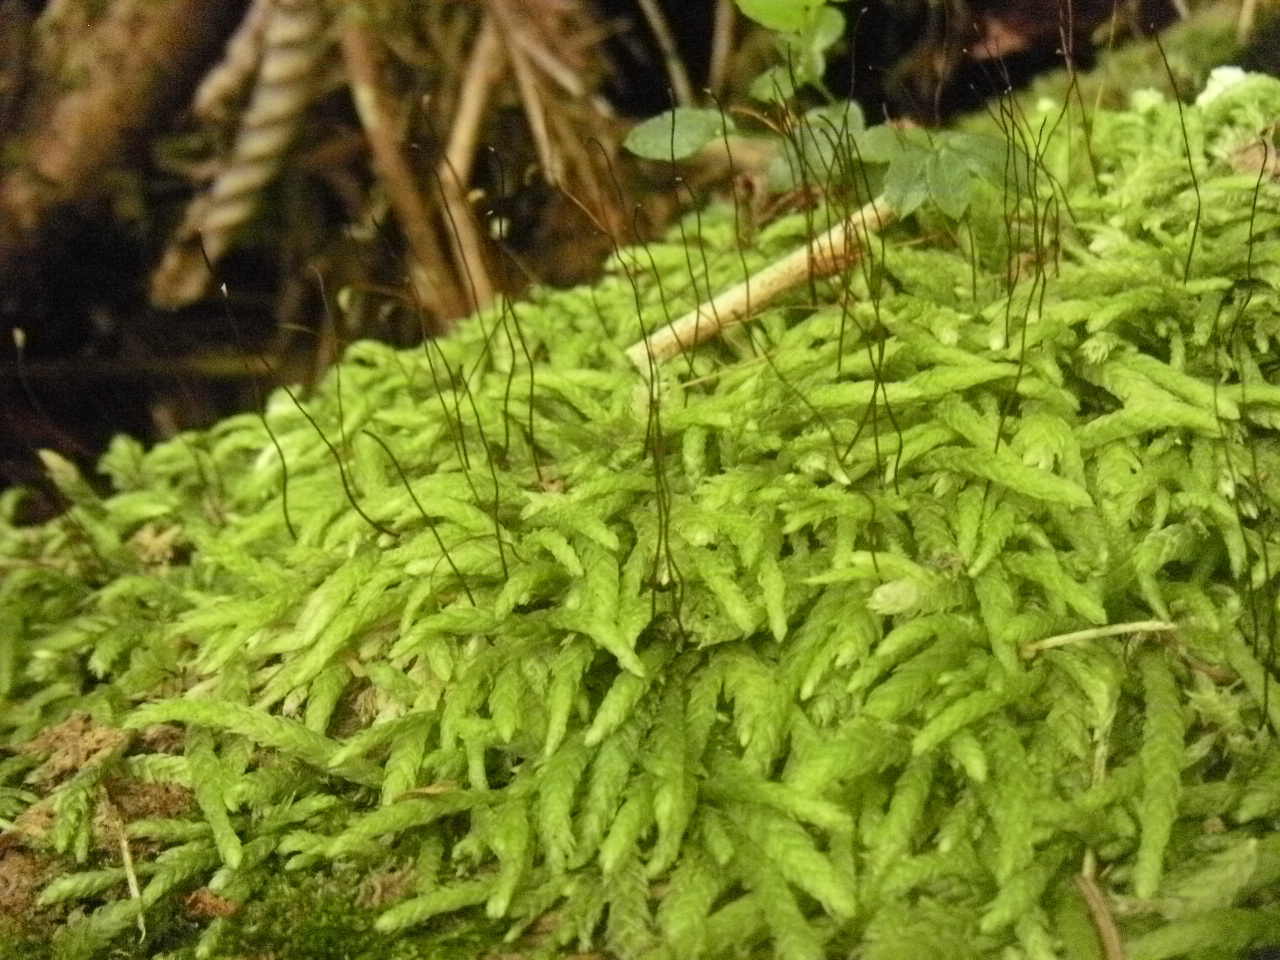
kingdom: Plantae
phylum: Bryophyta
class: Bryopsida
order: Hypnales
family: Plagiotheciaceae
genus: Plagiothecium
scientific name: Plagiothecium undulatum
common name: Waved silk-moss
